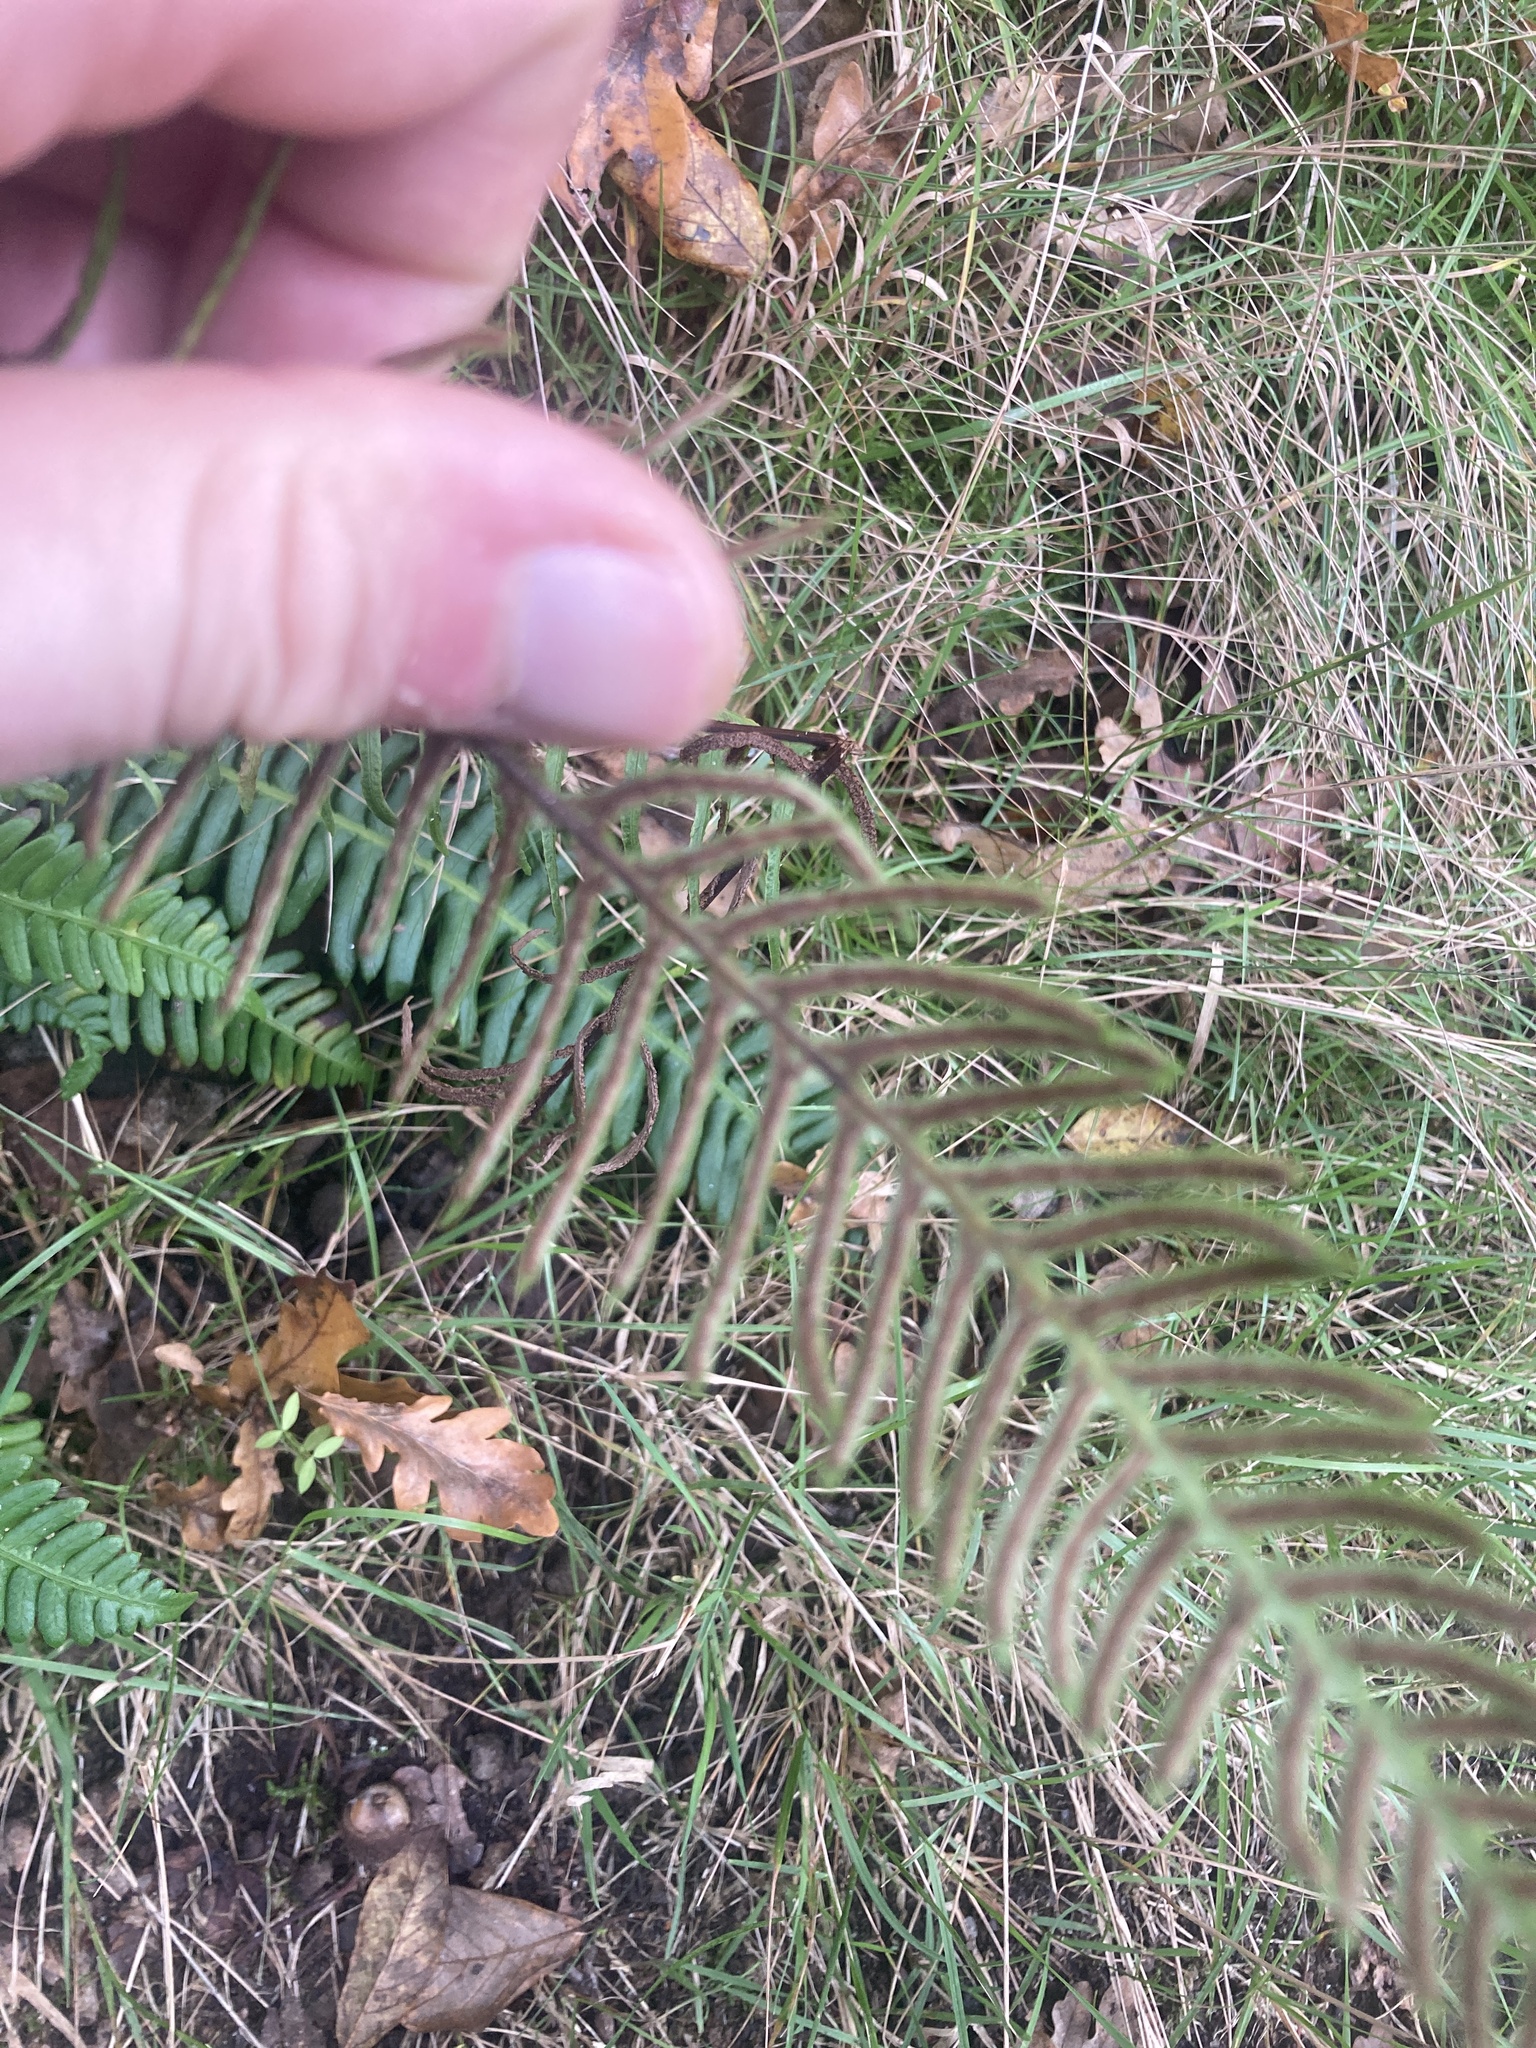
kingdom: Plantae
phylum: Tracheophyta
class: Polypodiopsida
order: Polypodiales
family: Blechnaceae
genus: Struthiopteris
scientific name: Struthiopteris spicant
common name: Deer fern
